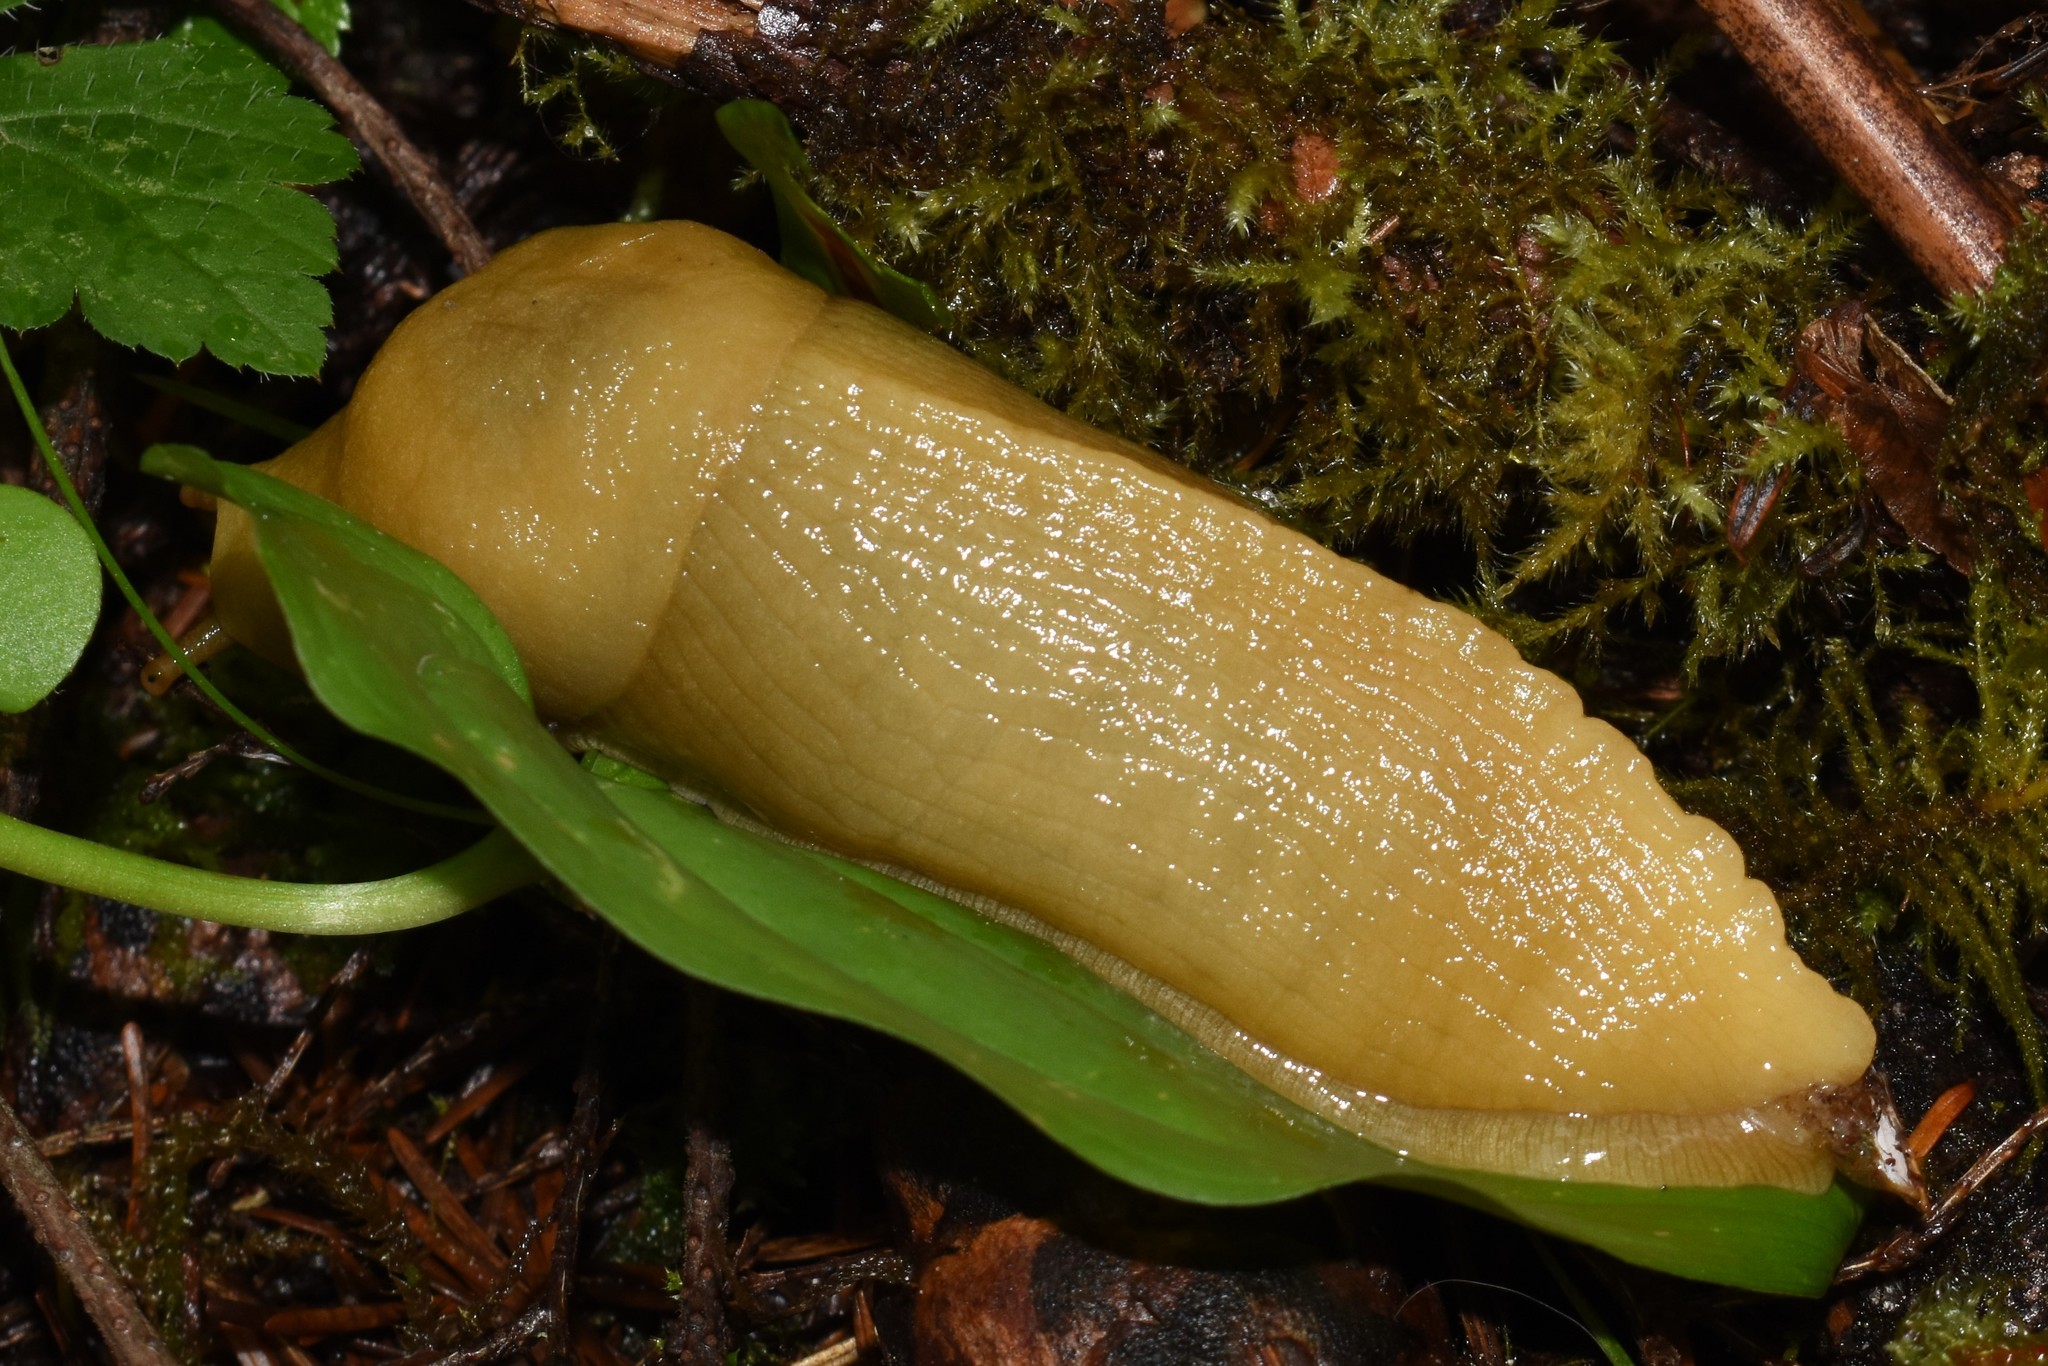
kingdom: Animalia
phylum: Mollusca
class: Gastropoda
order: Stylommatophora
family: Ariolimacidae
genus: Ariolimax
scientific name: Ariolimax columbianus
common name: Pacific banana slug
